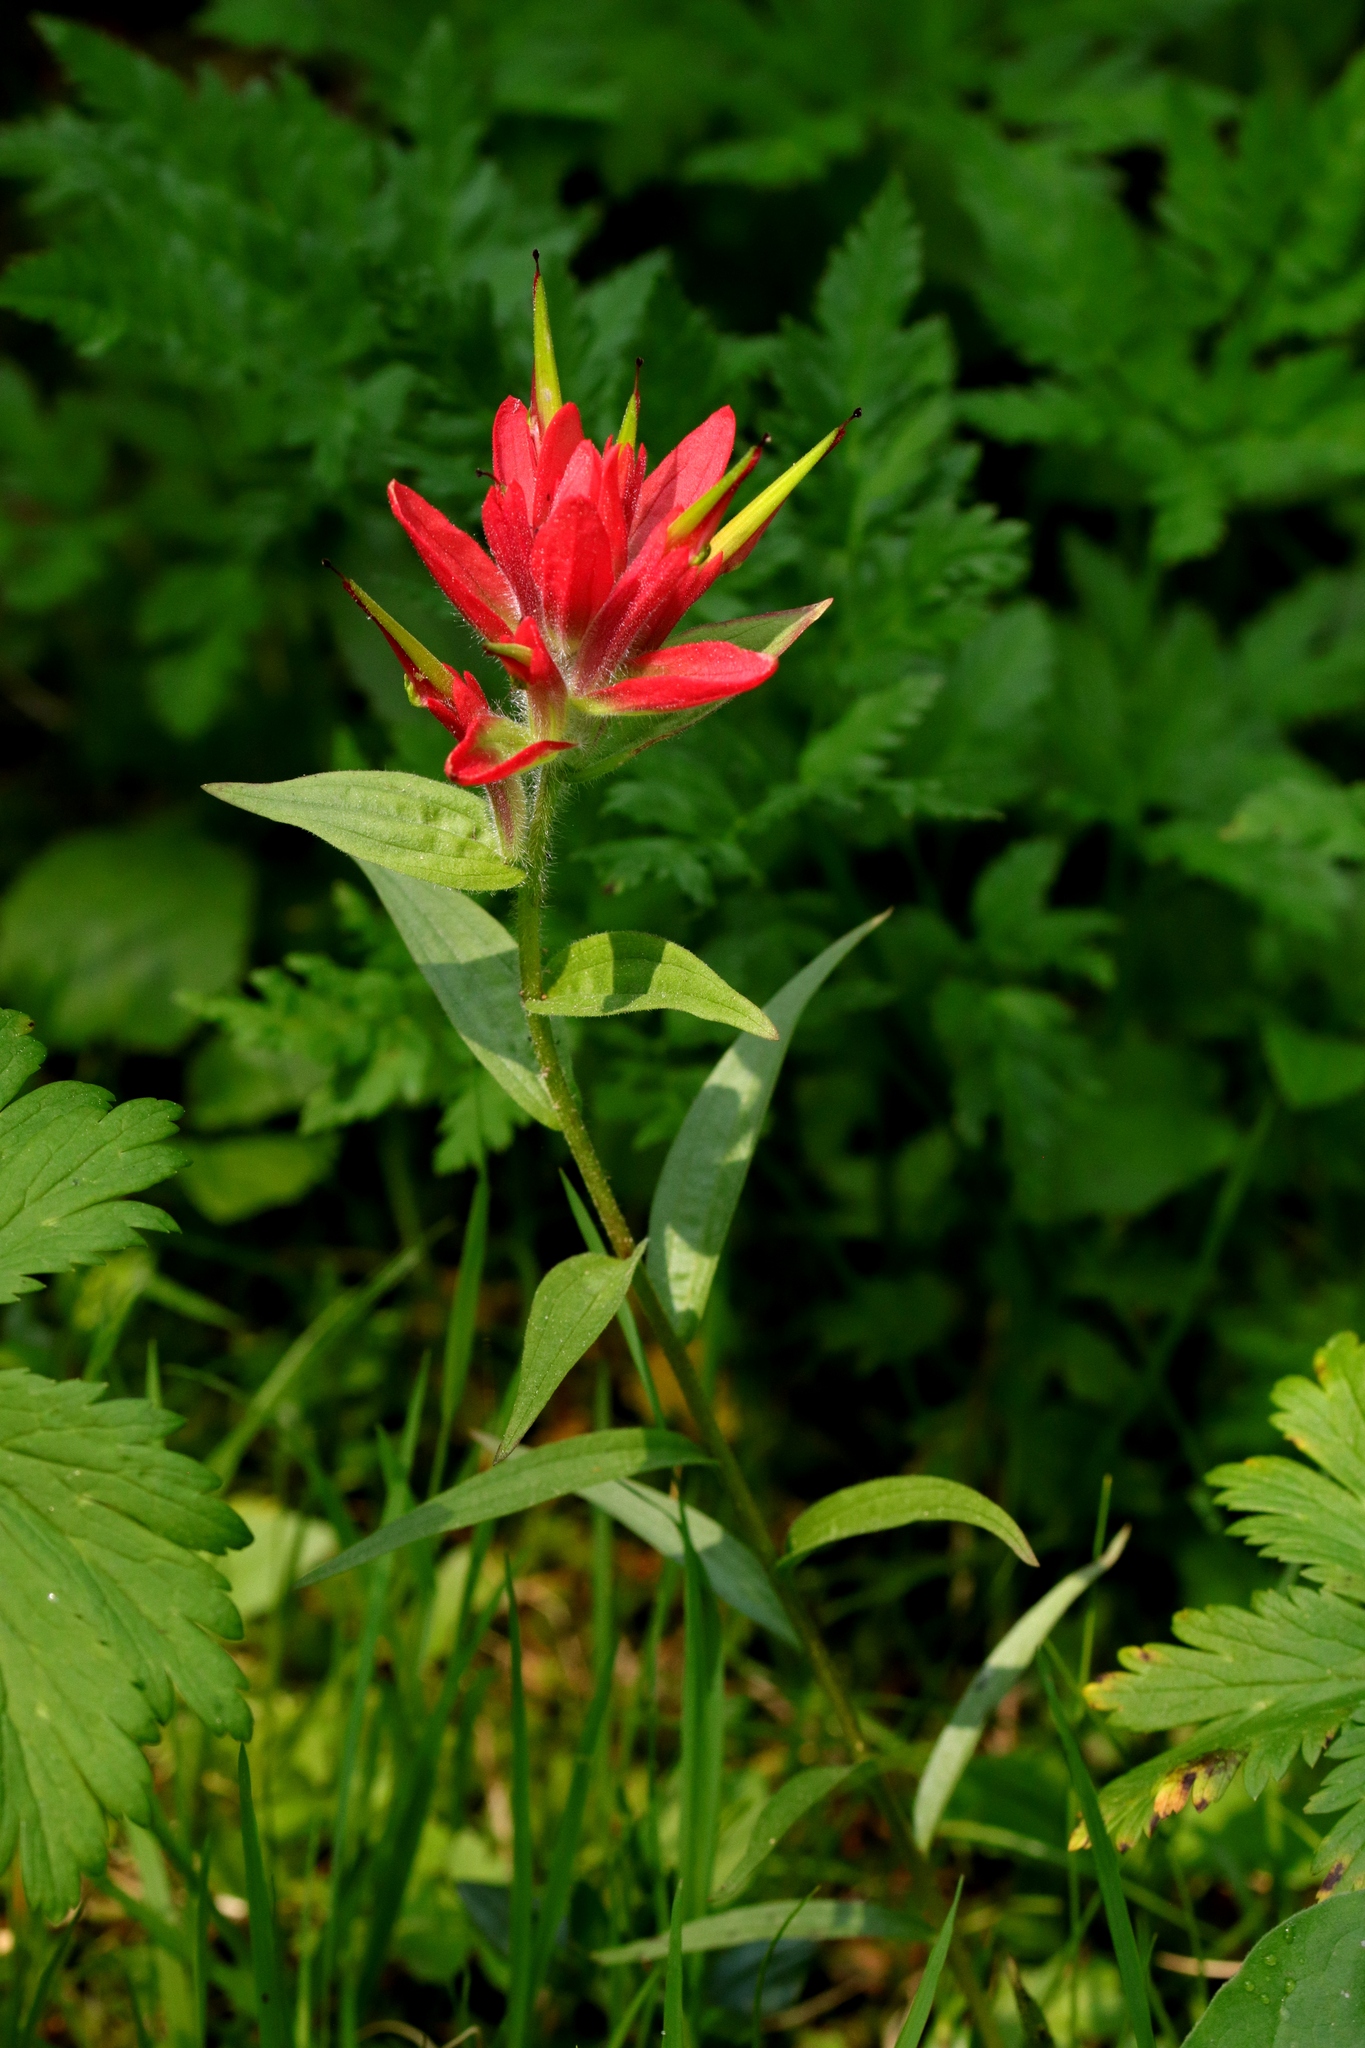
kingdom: Plantae
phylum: Tracheophyta
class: Magnoliopsida
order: Lamiales
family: Orobanchaceae
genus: Castilleja
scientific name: Castilleja miniata
